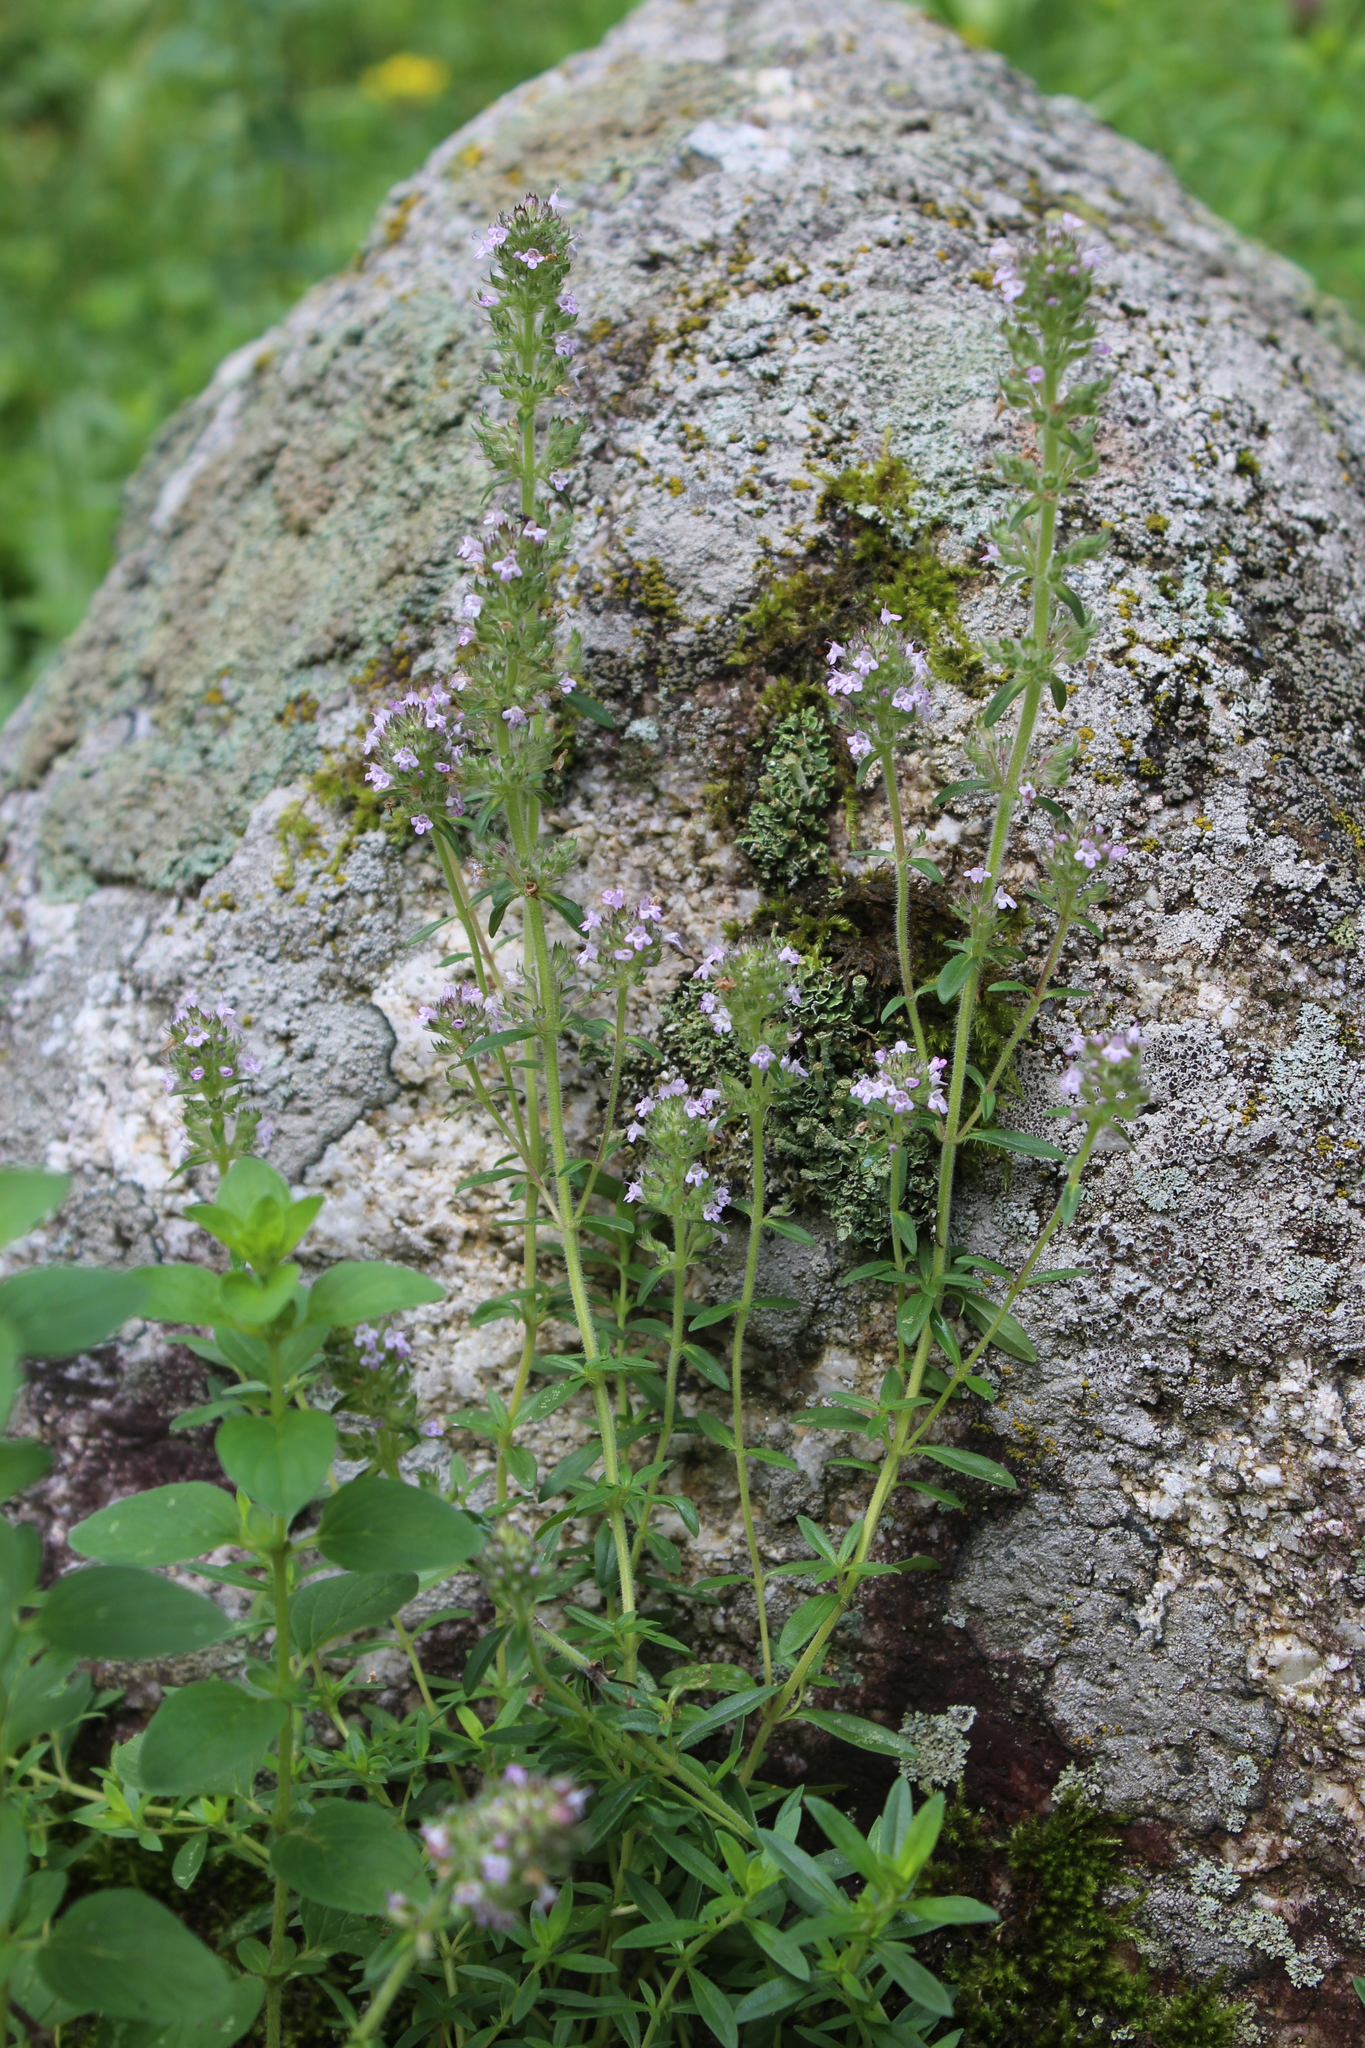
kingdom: Plantae
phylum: Tracheophyta
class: Magnoliopsida
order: Lamiales
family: Lamiaceae
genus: Thymus
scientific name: Thymus pannonicus
